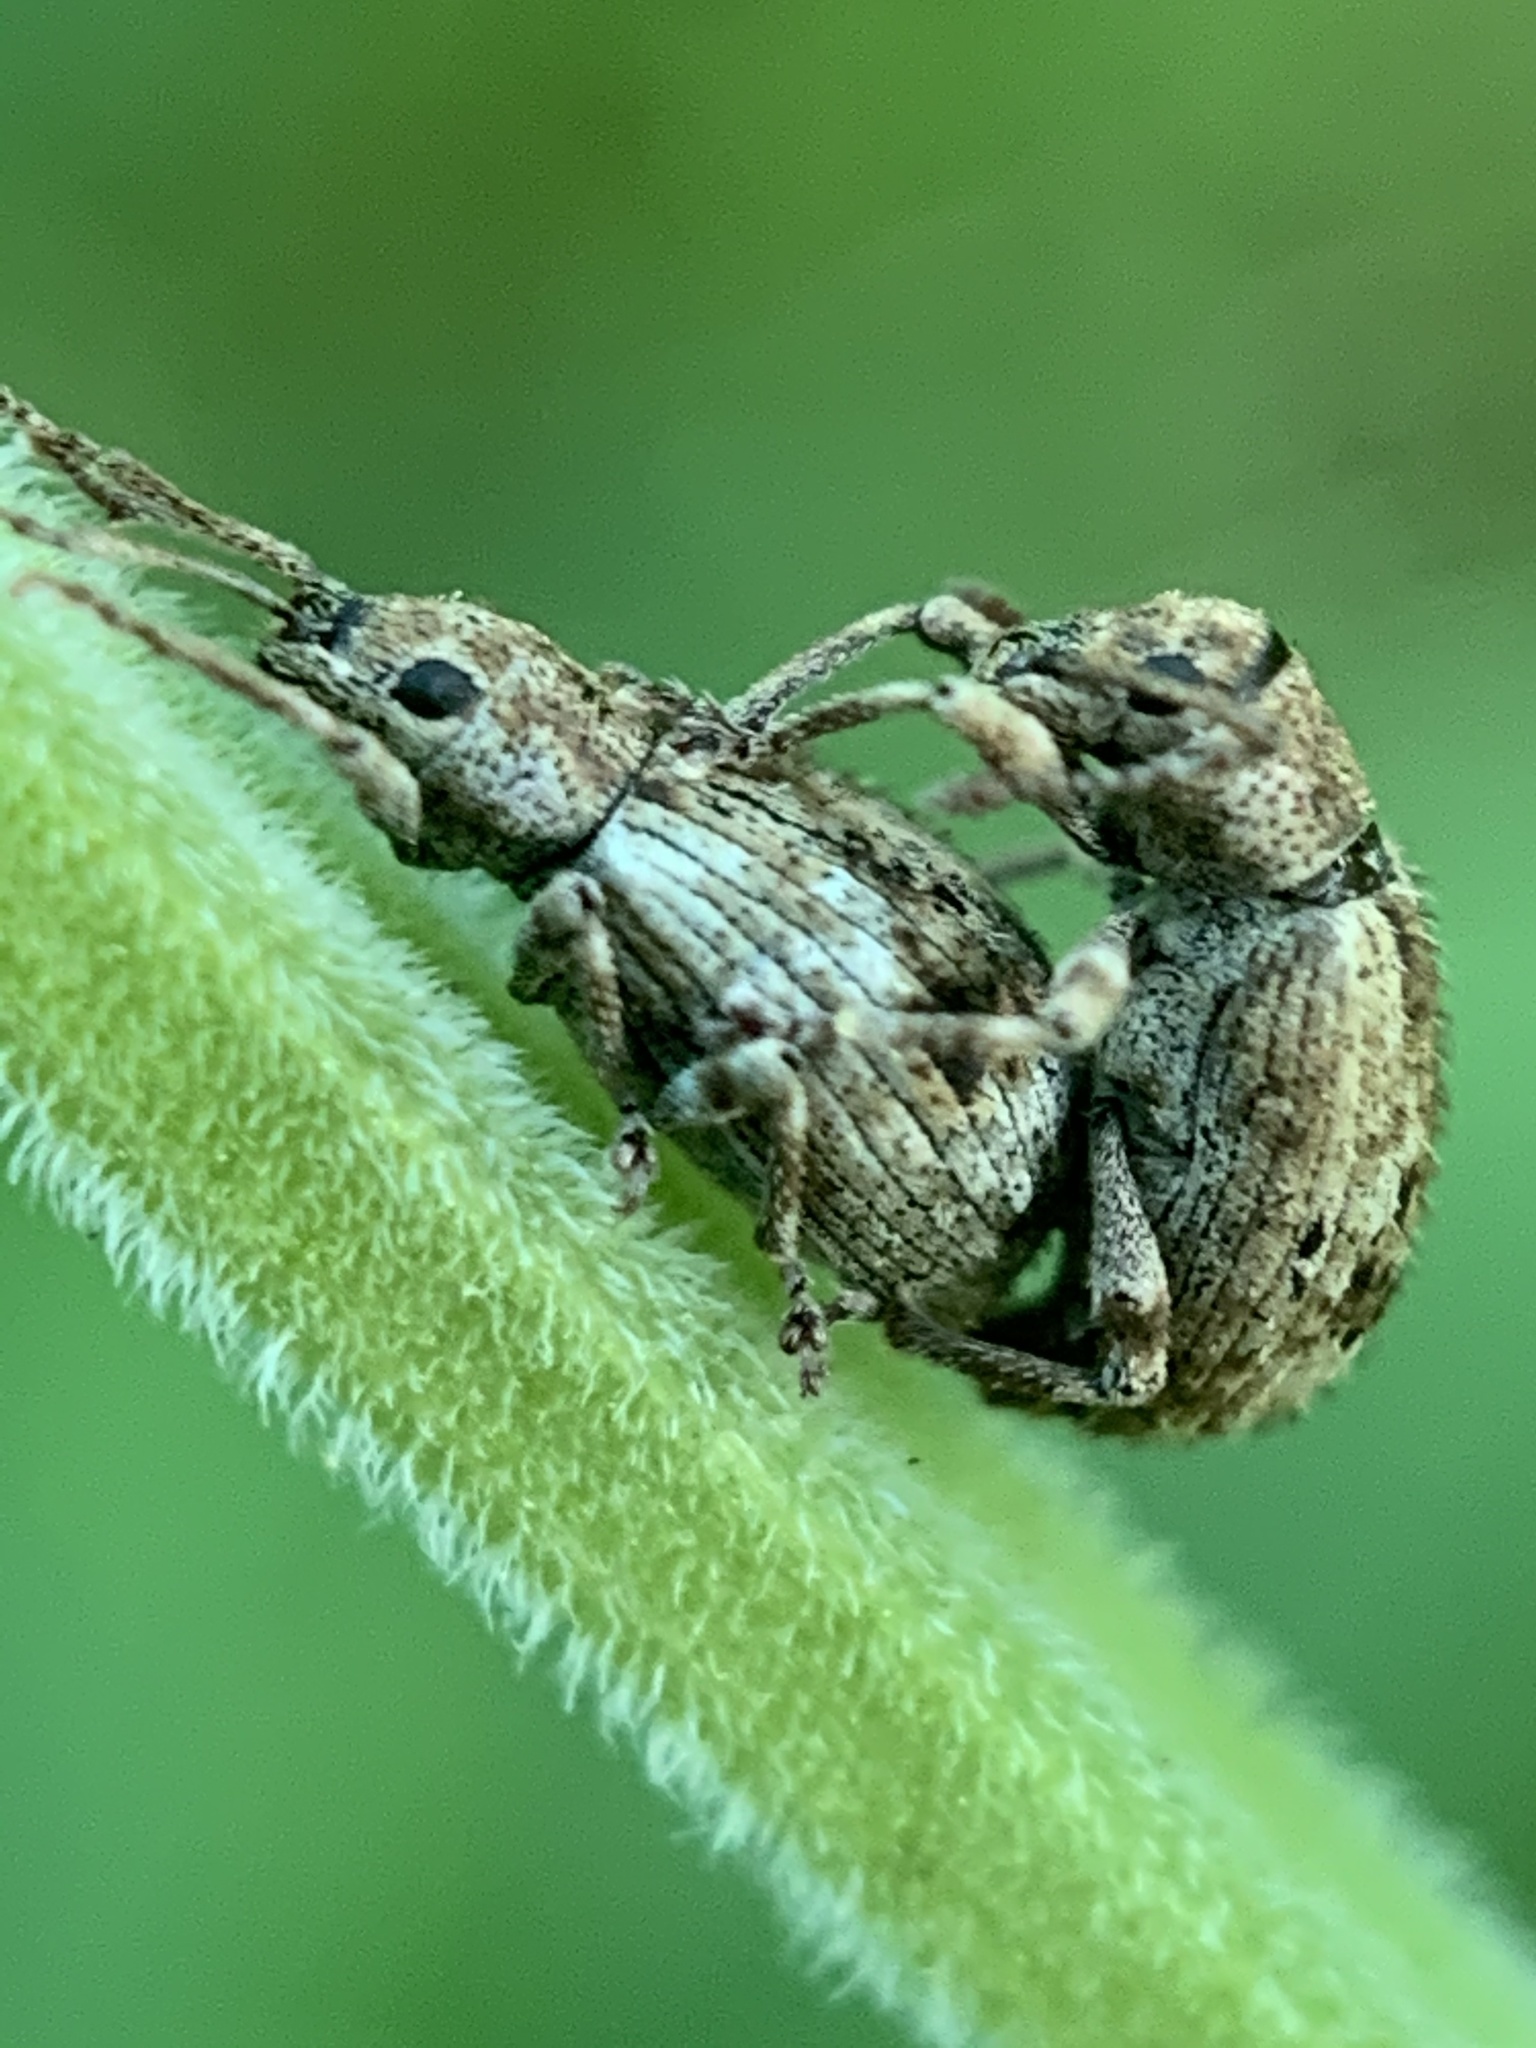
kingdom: Animalia
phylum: Arthropoda
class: Insecta
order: Coleoptera
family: Curculionidae
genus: Pseudoedophrys
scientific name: Pseudoedophrys hilleri
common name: Weevil
